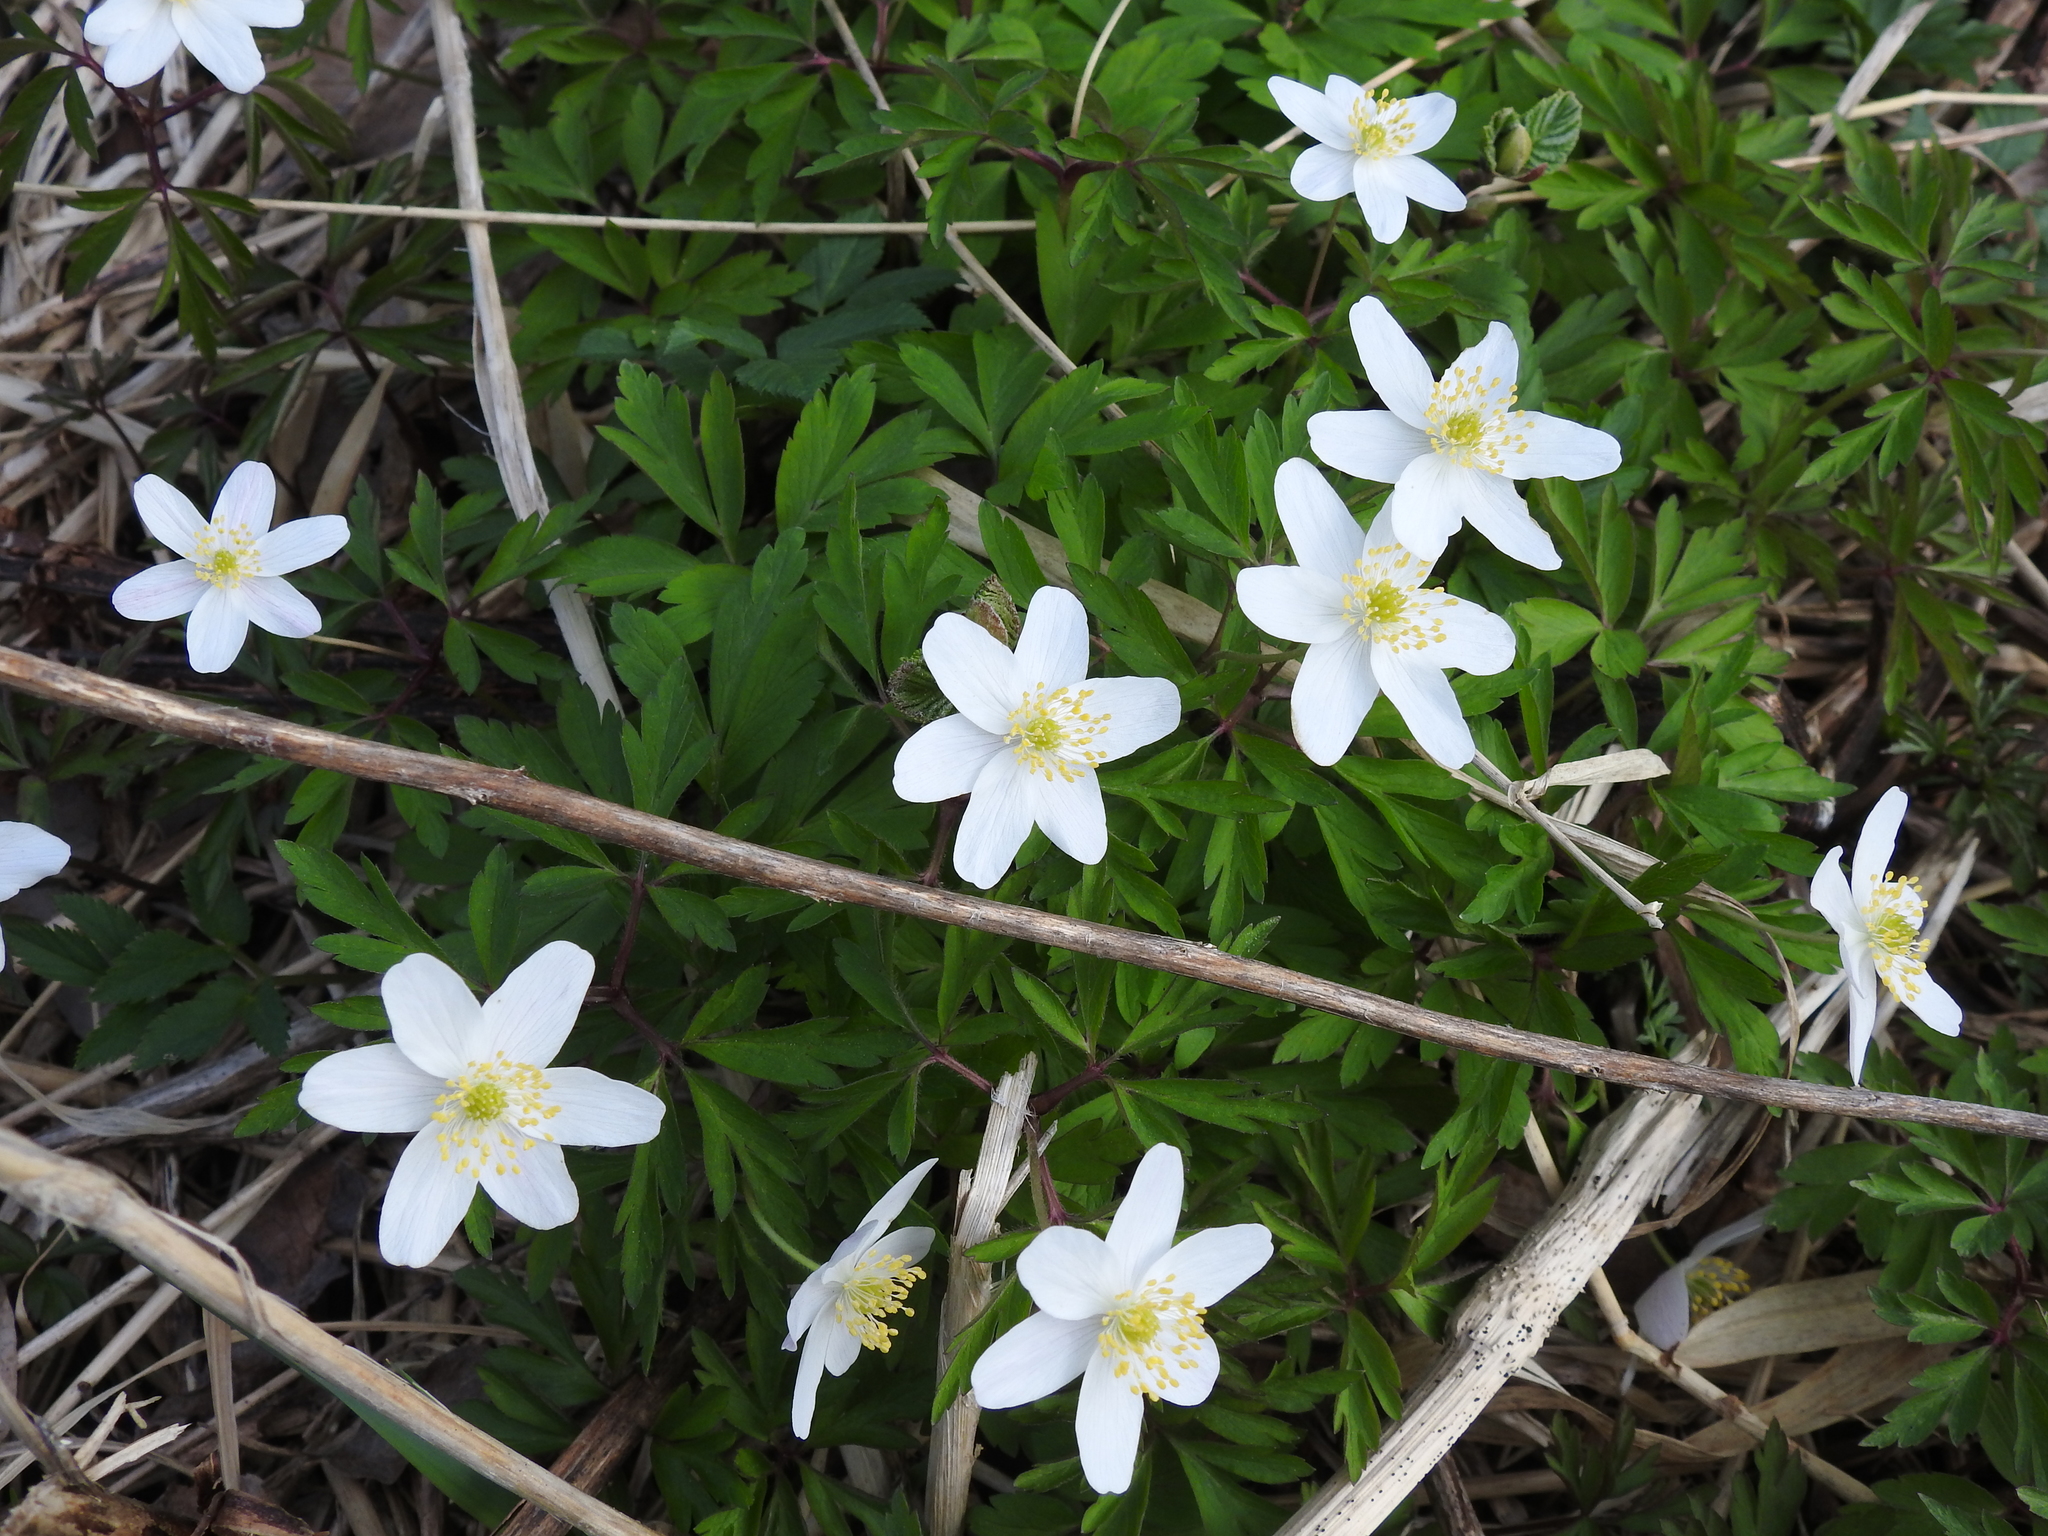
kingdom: Plantae
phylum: Tracheophyta
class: Magnoliopsida
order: Ranunculales
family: Ranunculaceae
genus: Anemone
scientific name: Anemone nemorosa
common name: Wood anemone
